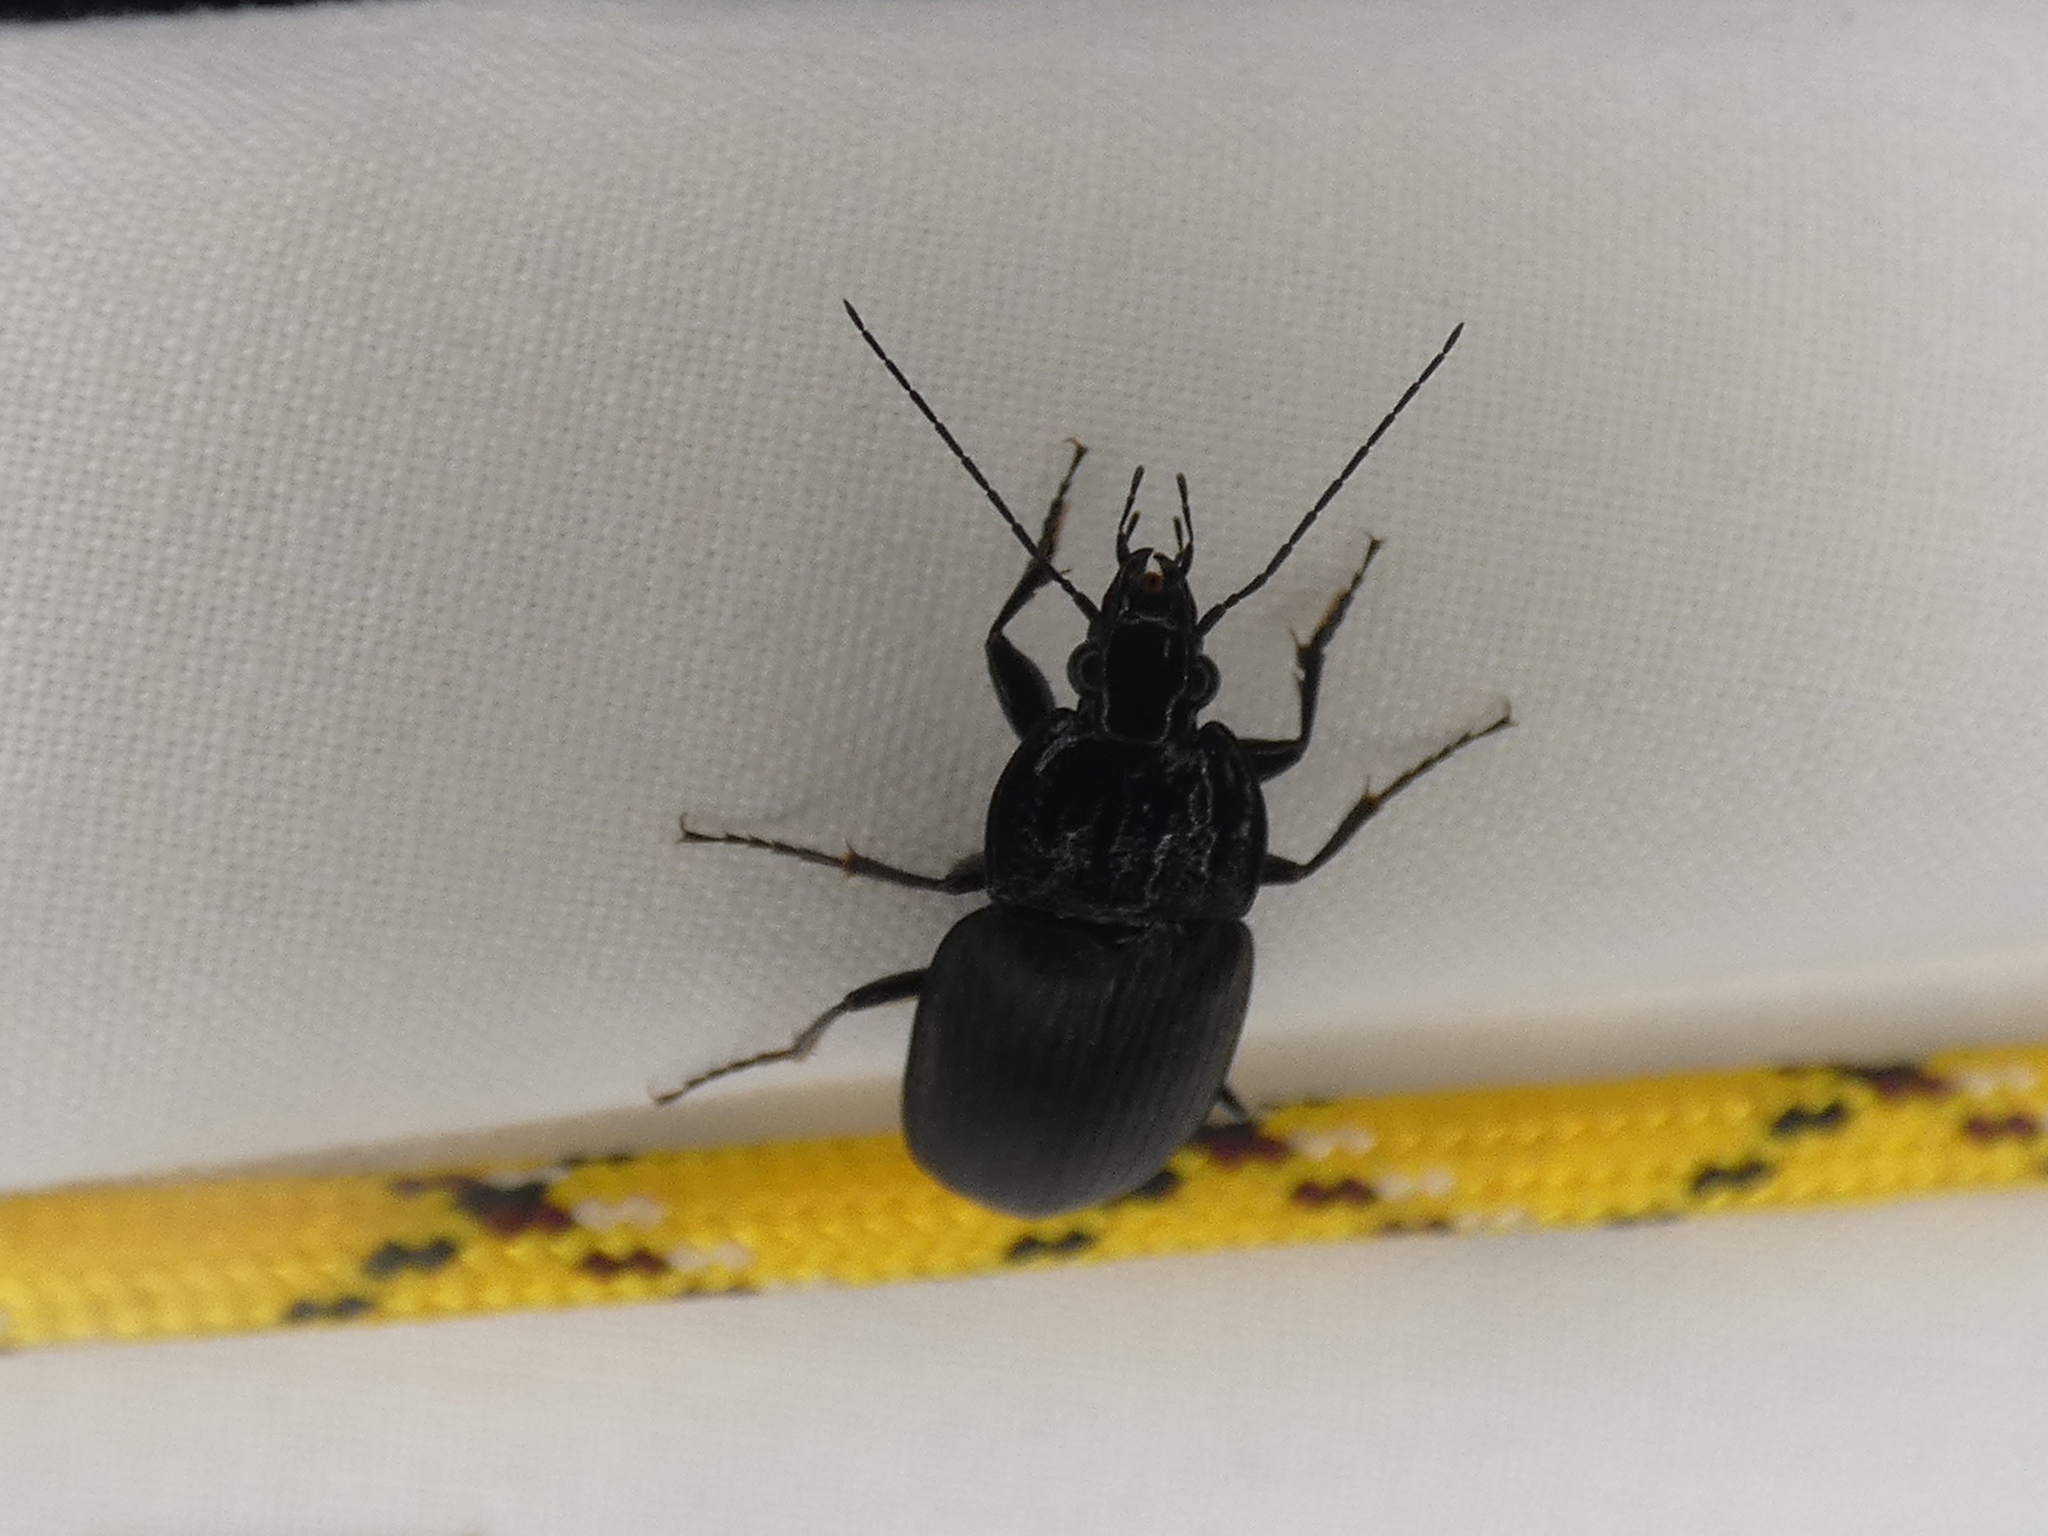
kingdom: Animalia
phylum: Arthropoda
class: Insecta
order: Coleoptera
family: Carabidae
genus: Chlaenius
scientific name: Chlaenius niger
